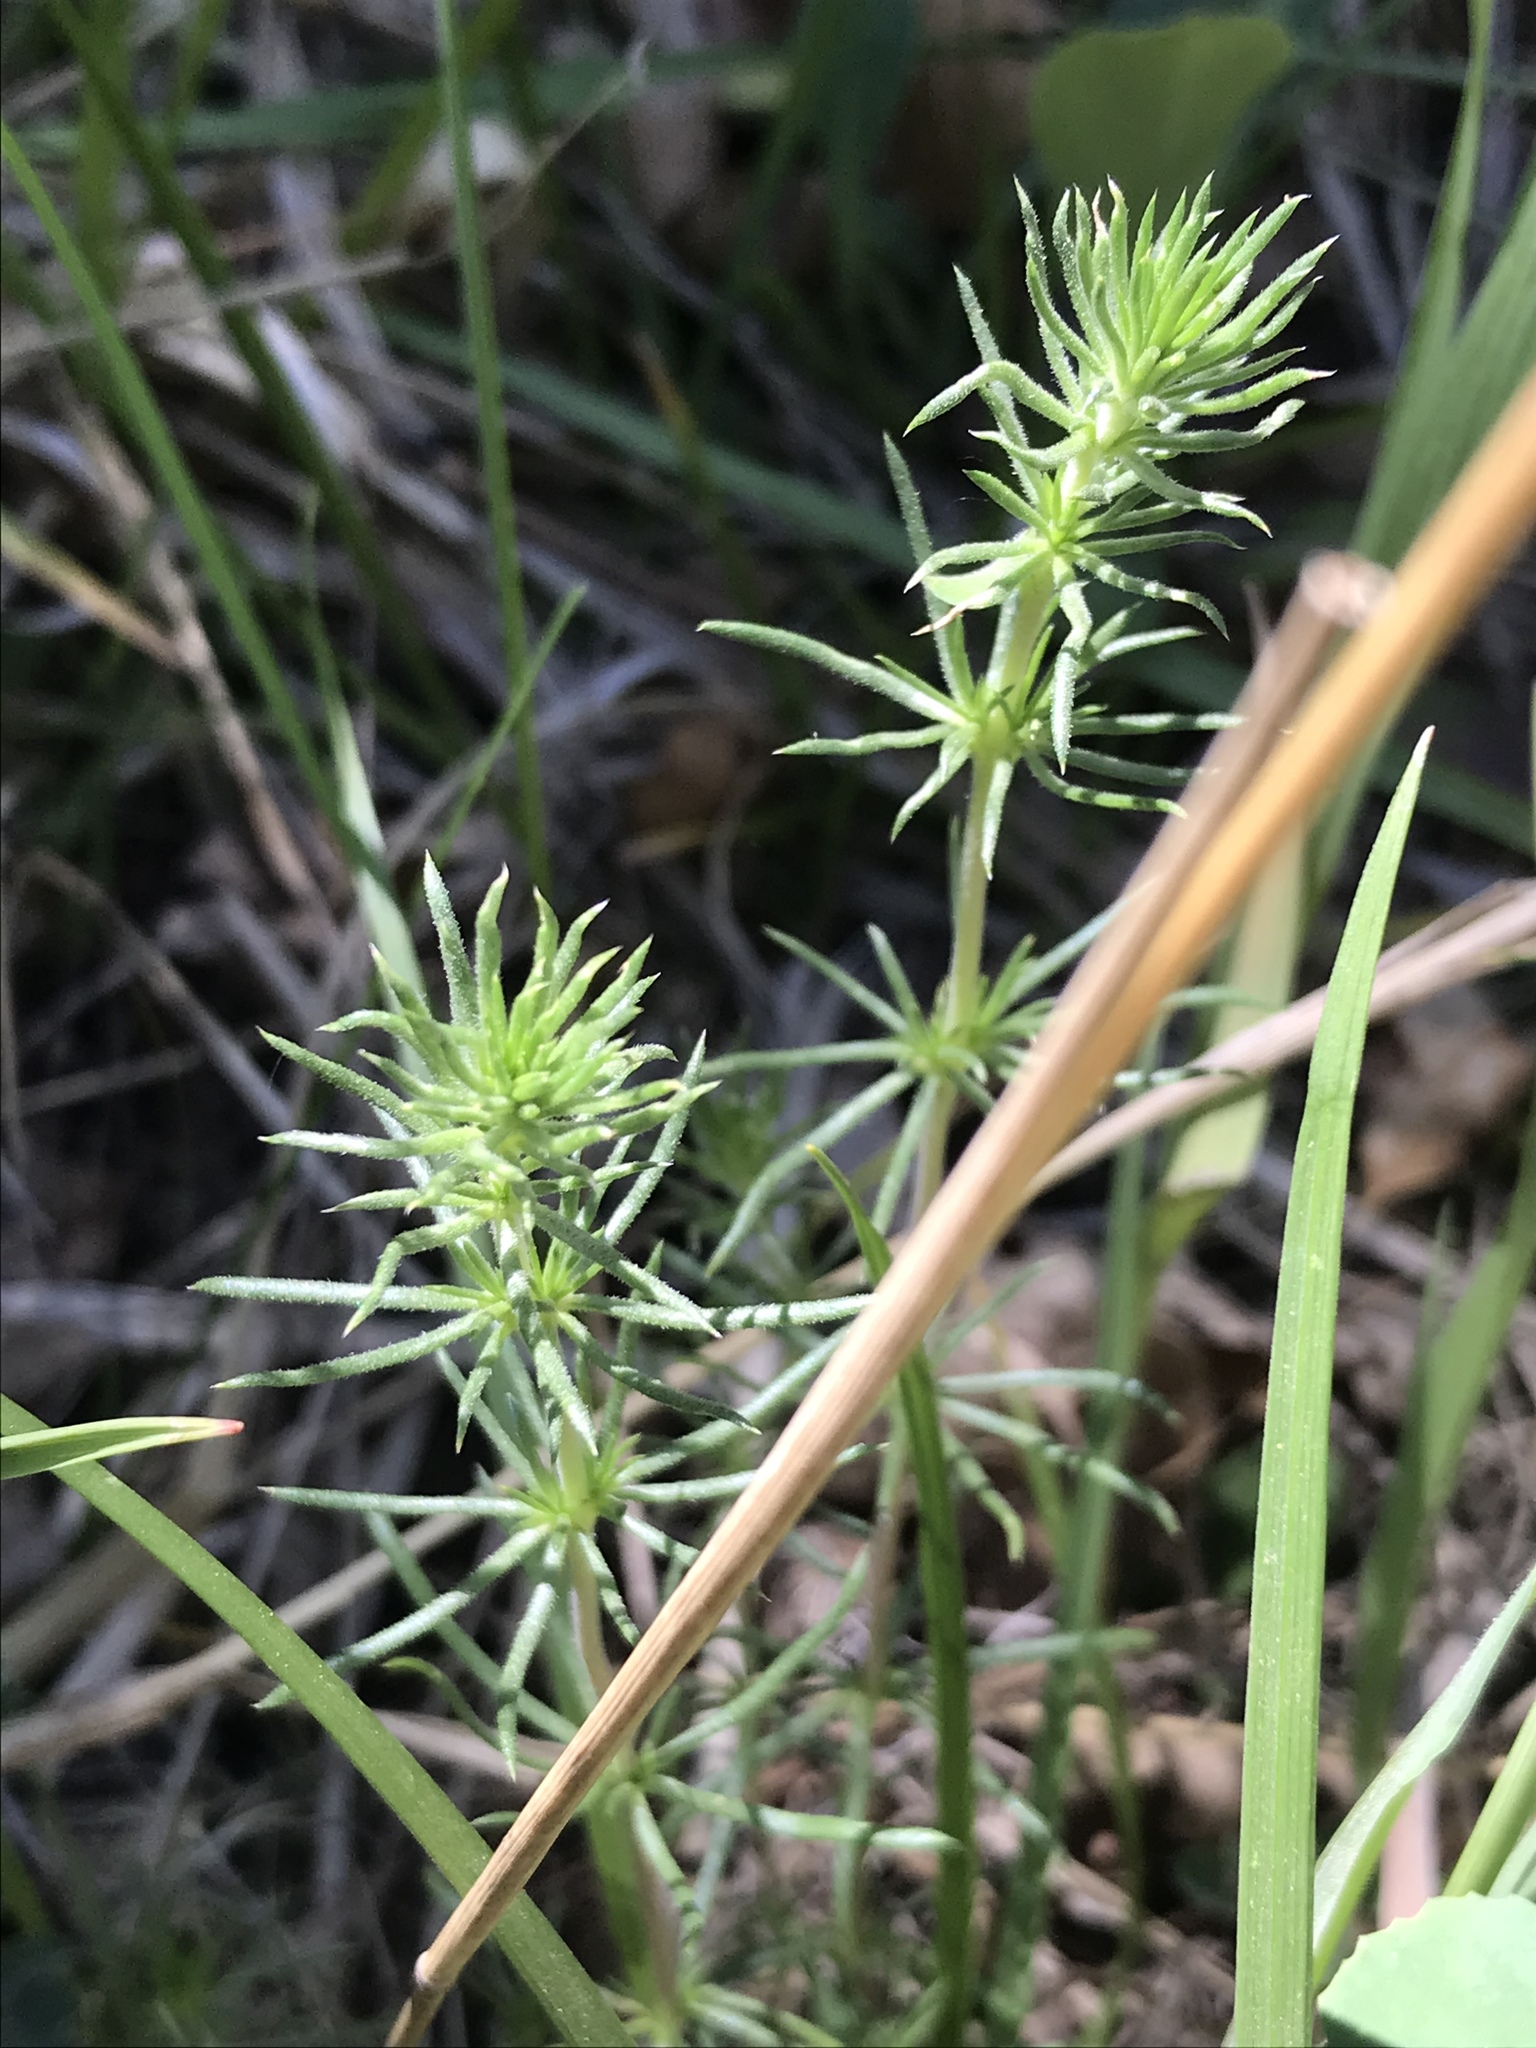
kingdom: Plantae
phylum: Tracheophyta
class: Magnoliopsida
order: Ericales
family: Polemoniaceae
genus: Leptosiphon
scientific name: Leptosiphon nuttallii
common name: Nuttall's linanthus
